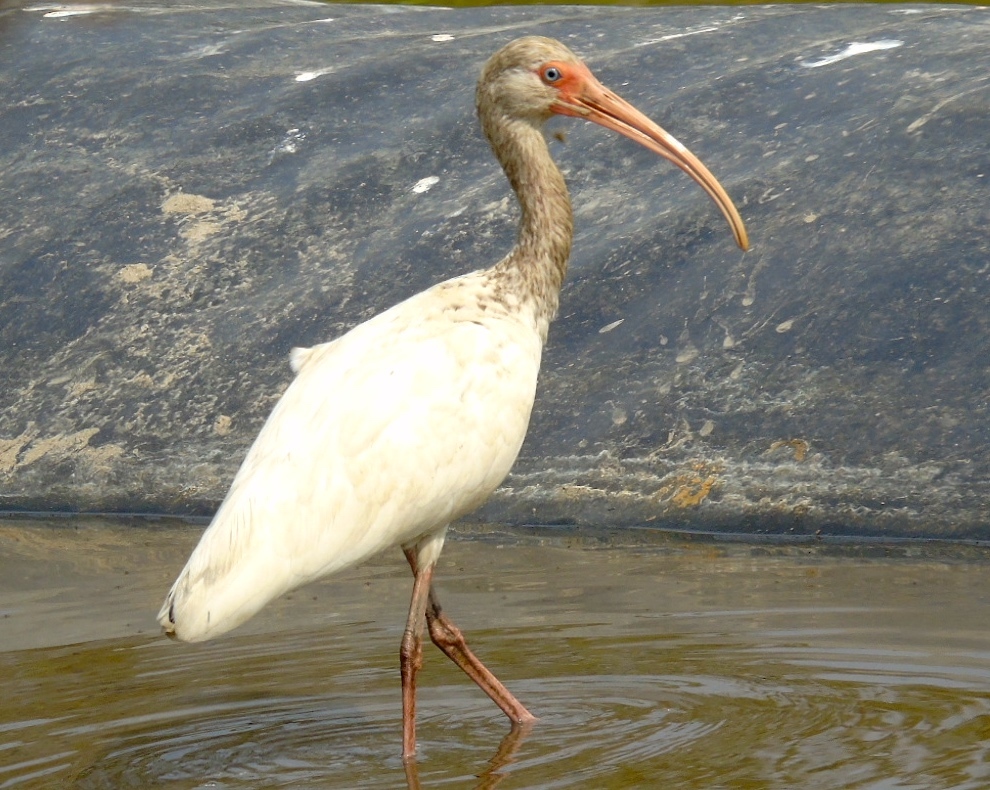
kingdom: Animalia
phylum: Chordata
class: Aves
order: Pelecaniformes
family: Threskiornithidae
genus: Eudocimus
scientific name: Eudocimus albus
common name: White ibis
